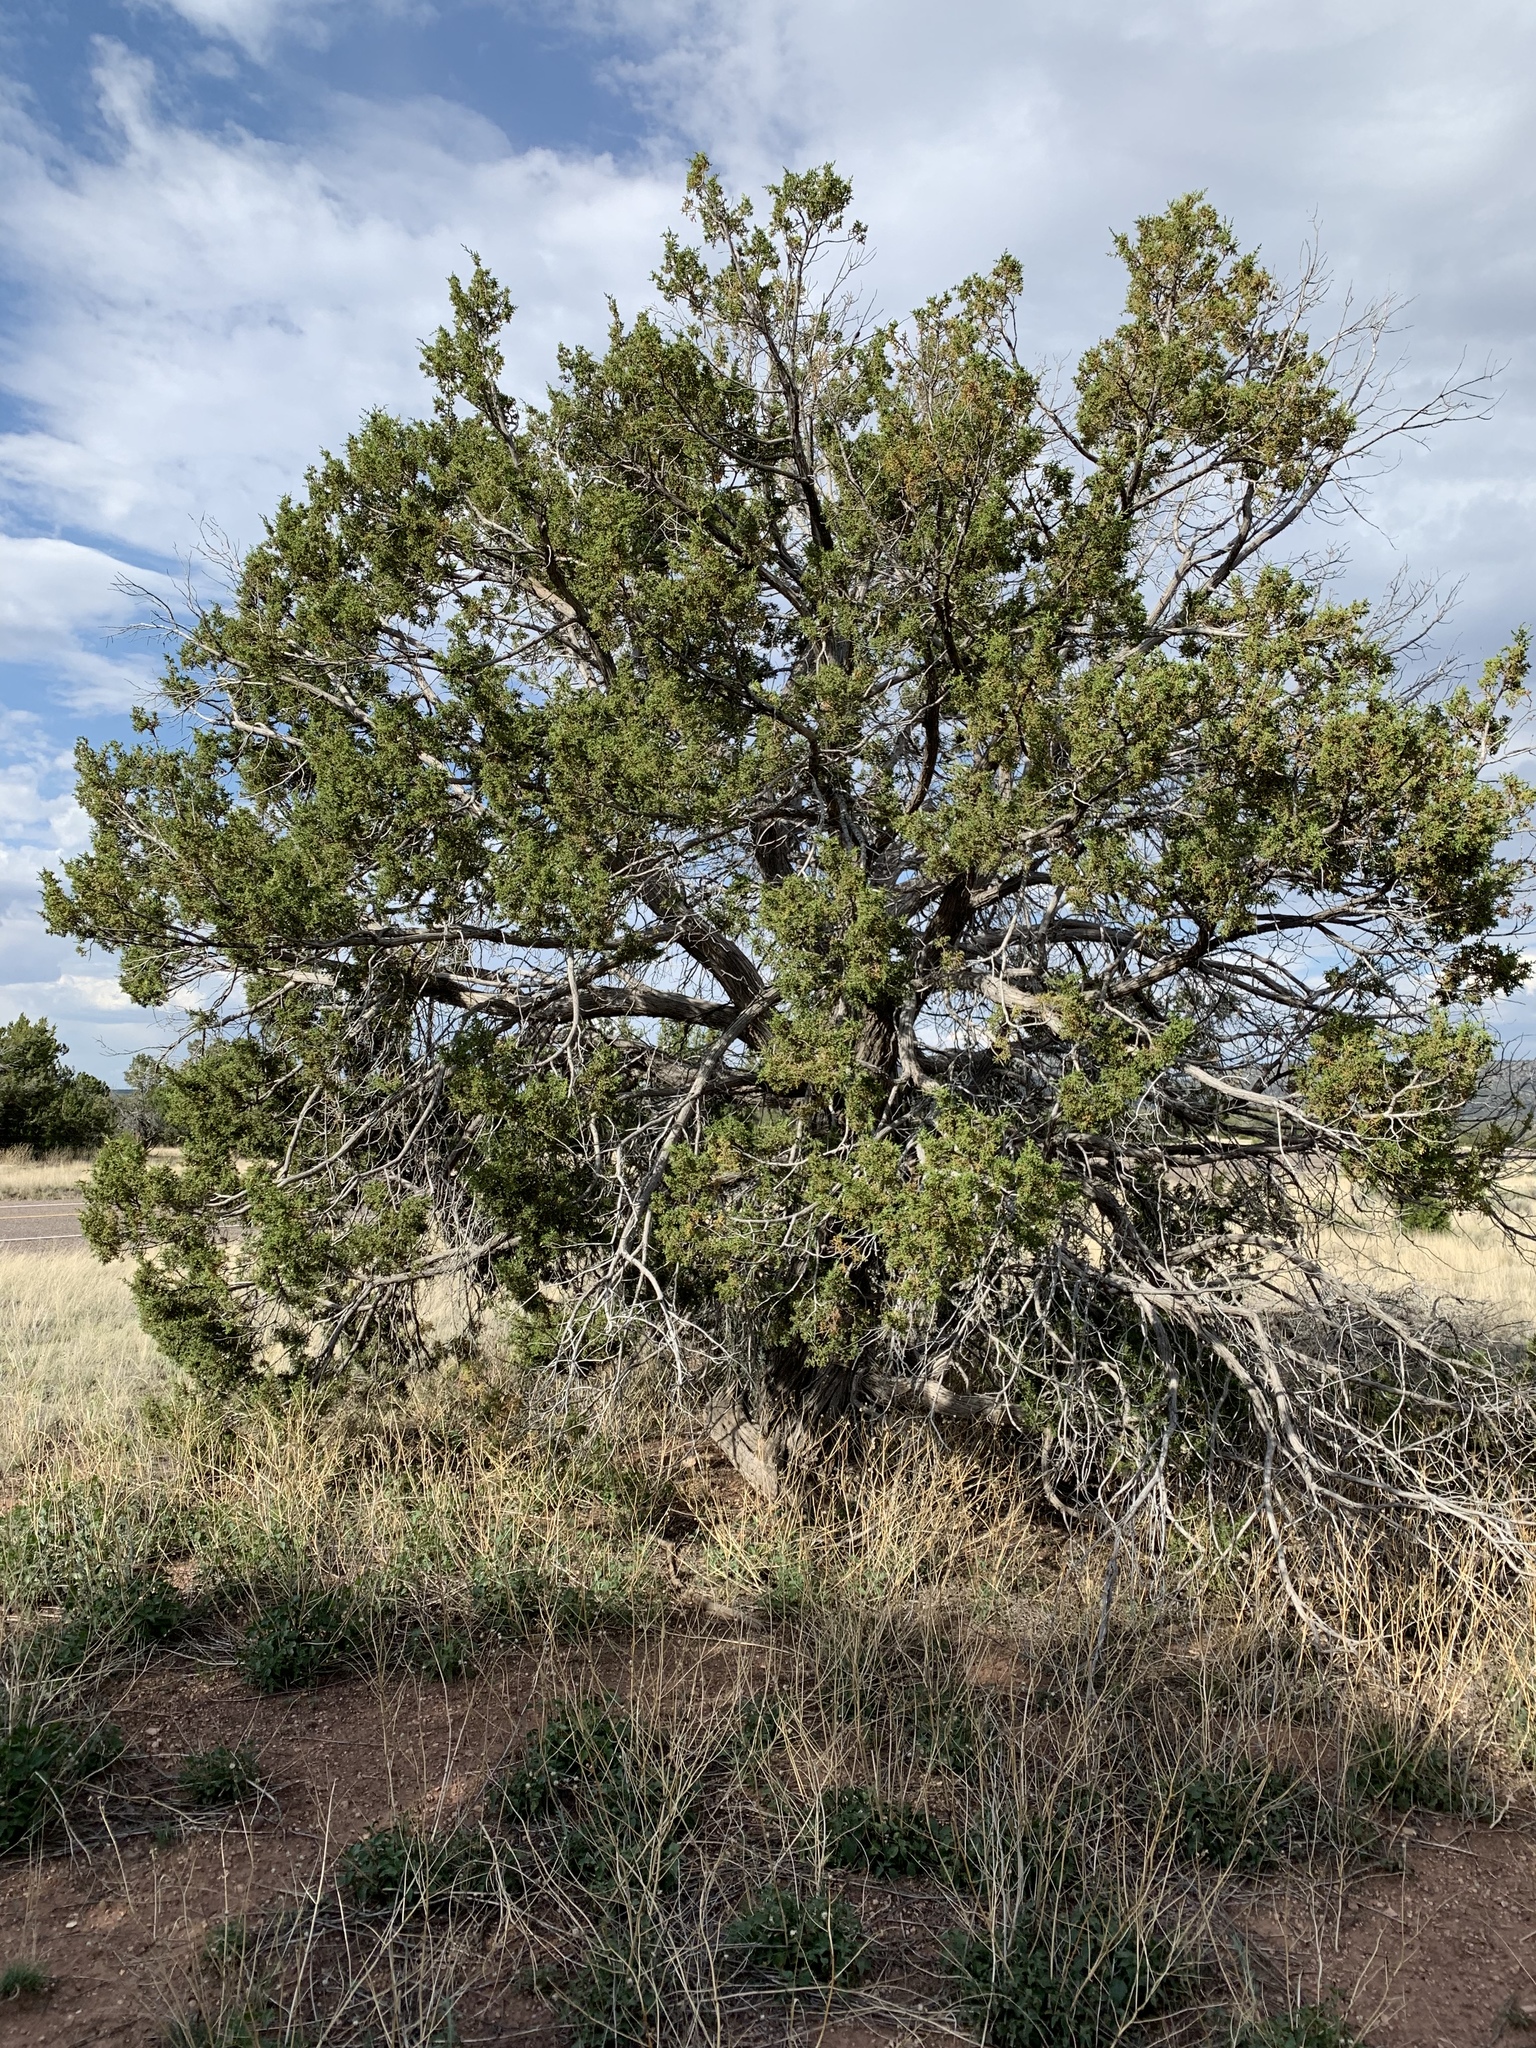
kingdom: Plantae
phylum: Tracheophyta
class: Pinopsida
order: Pinales
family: Cupressaceae
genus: Juniperus
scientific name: Juniperus monosperma
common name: One-seed juniper
